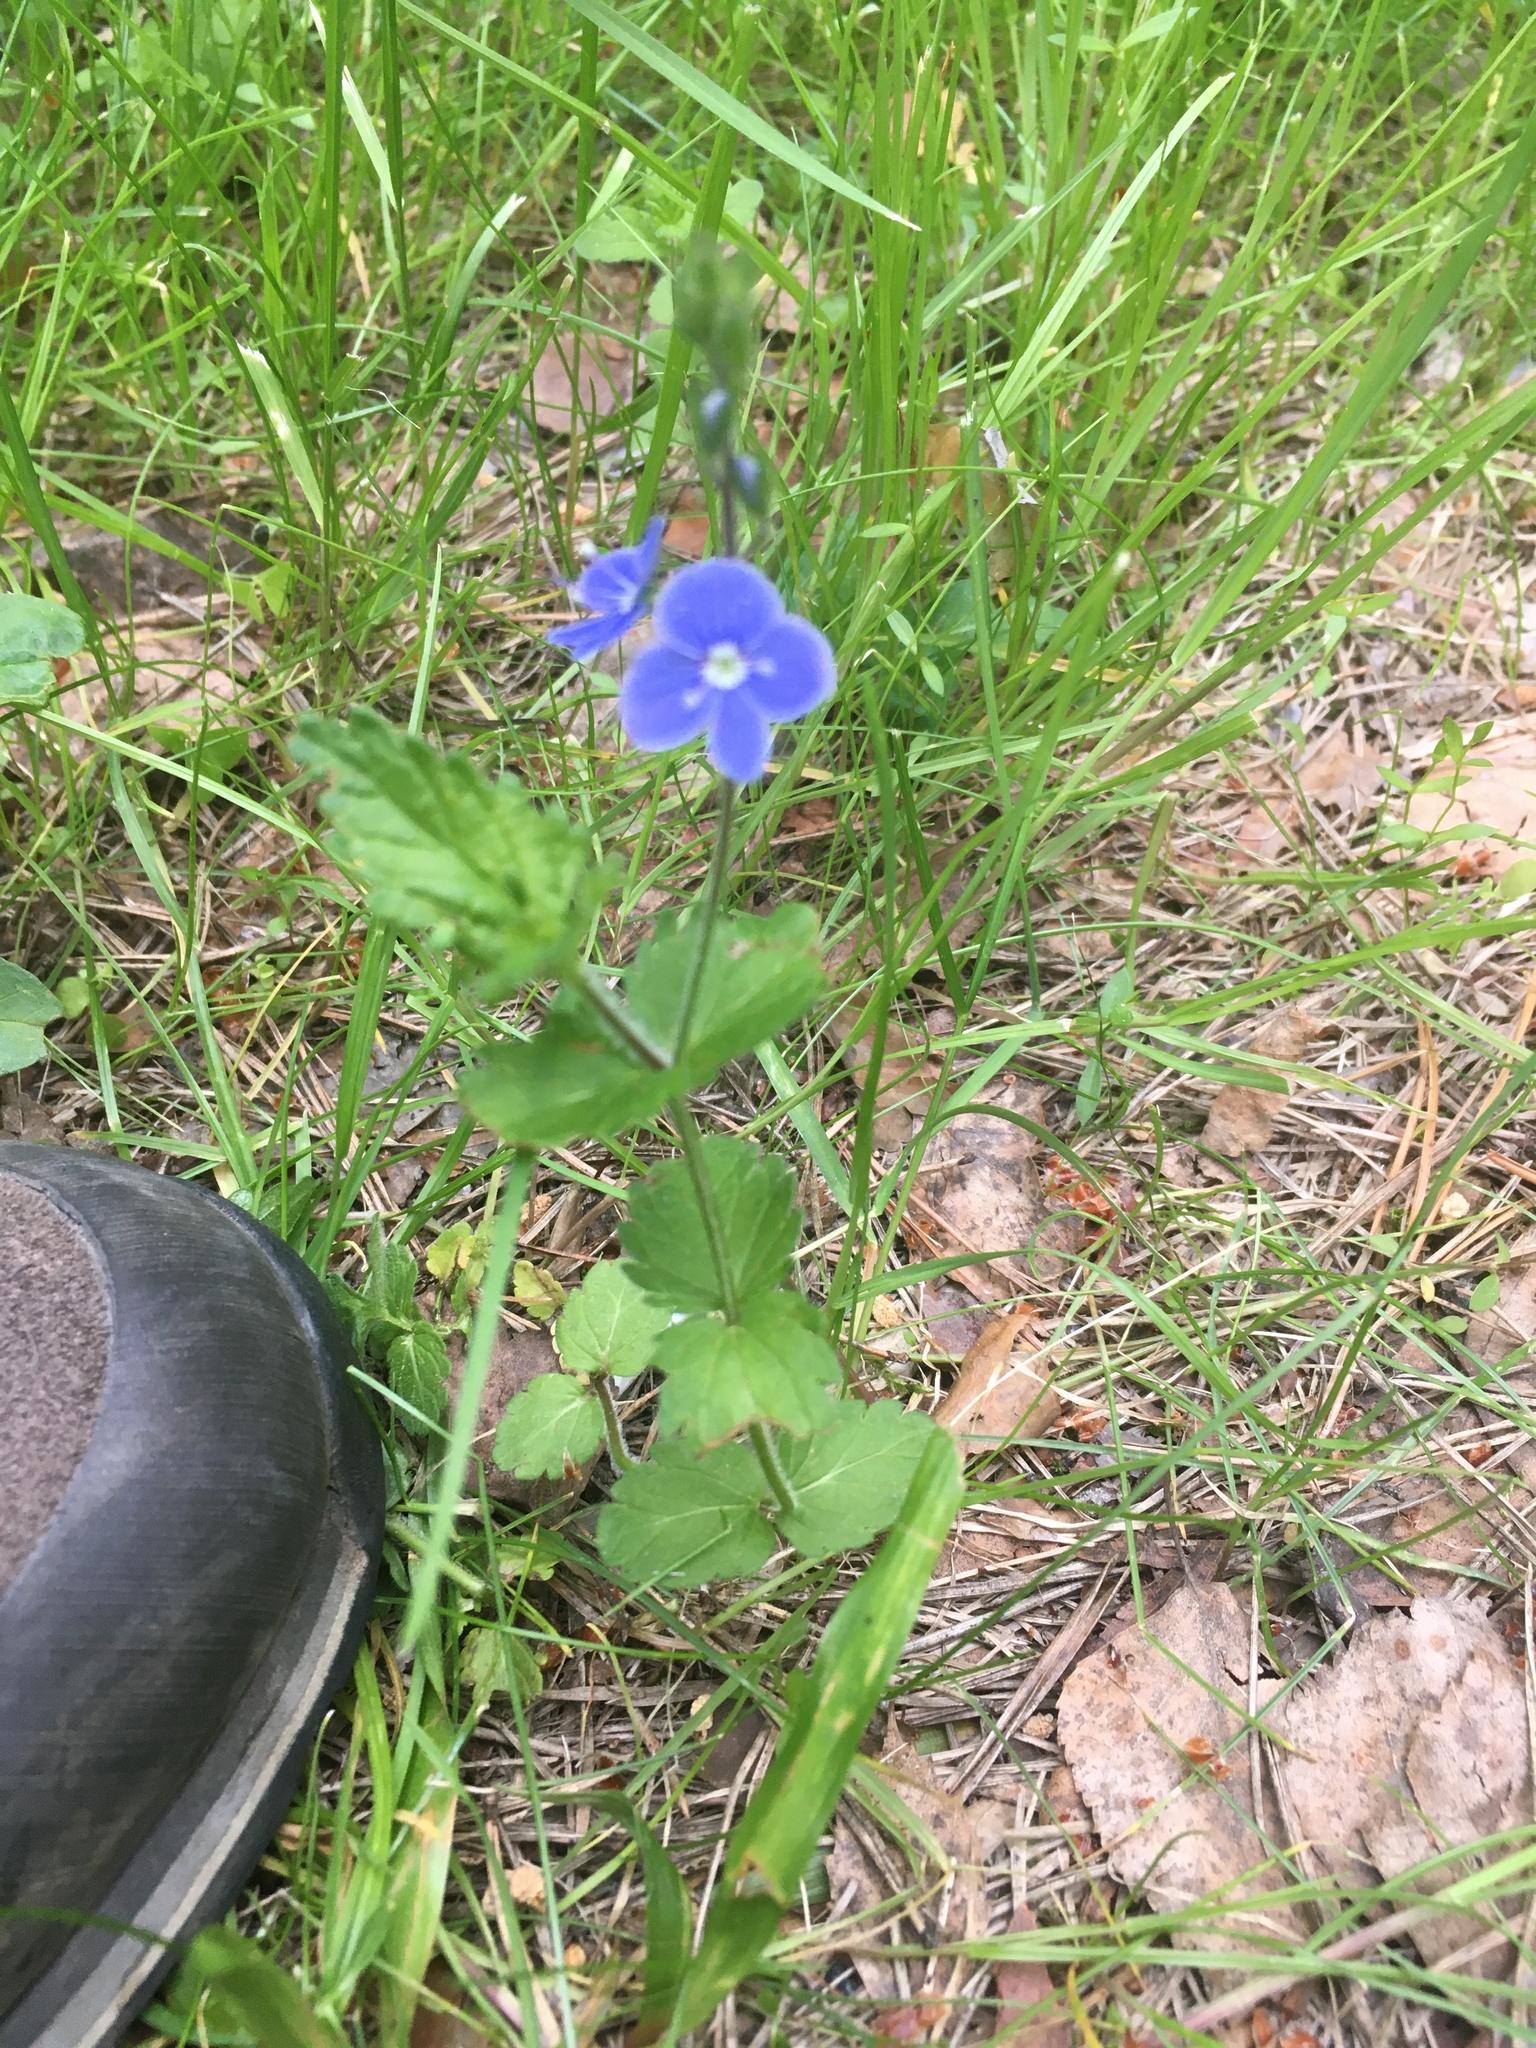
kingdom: Plantae
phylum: Tracheophyta
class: Magnoliopsida
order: Lamiales
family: Plantaginaceae
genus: Veronica
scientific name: Veronica chamaedrys
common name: Germander speedwell
